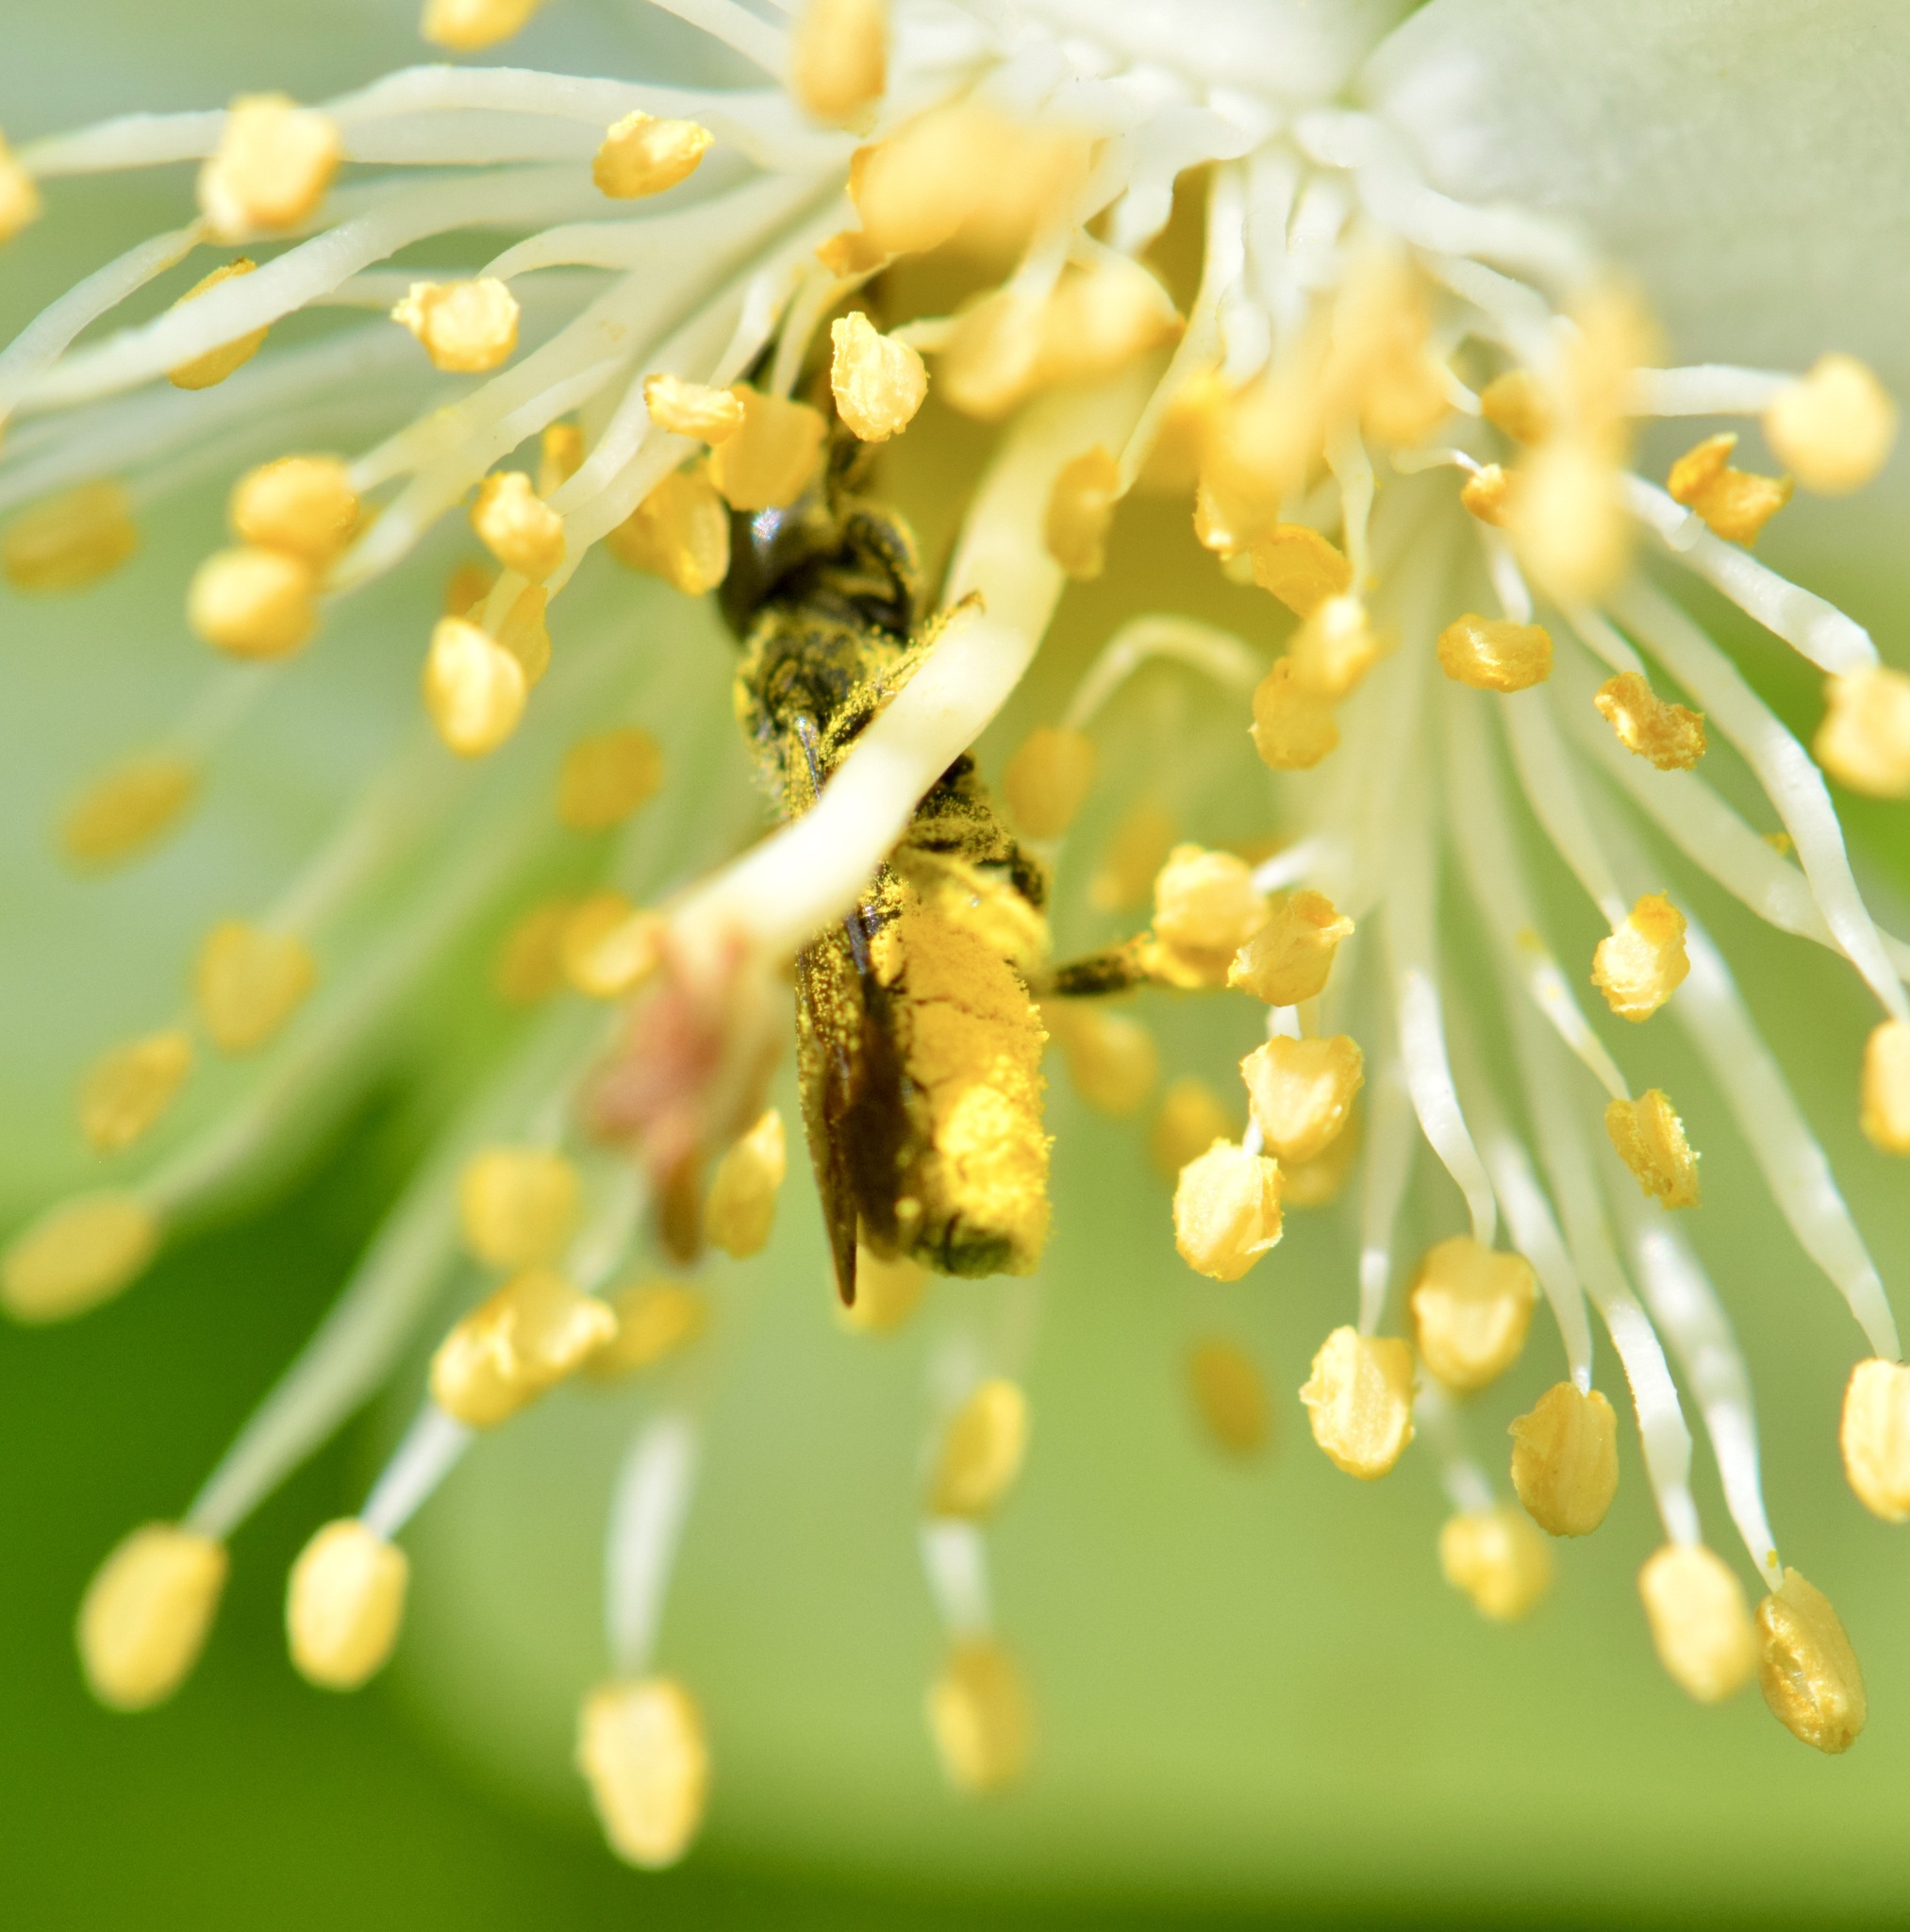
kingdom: Animalia
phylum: Arthropoda
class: Insecta
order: Hymenoptera
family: Megachilidae
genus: Chelostoma
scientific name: Chelostoma philadelphi
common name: Mock-orange scissor bee
